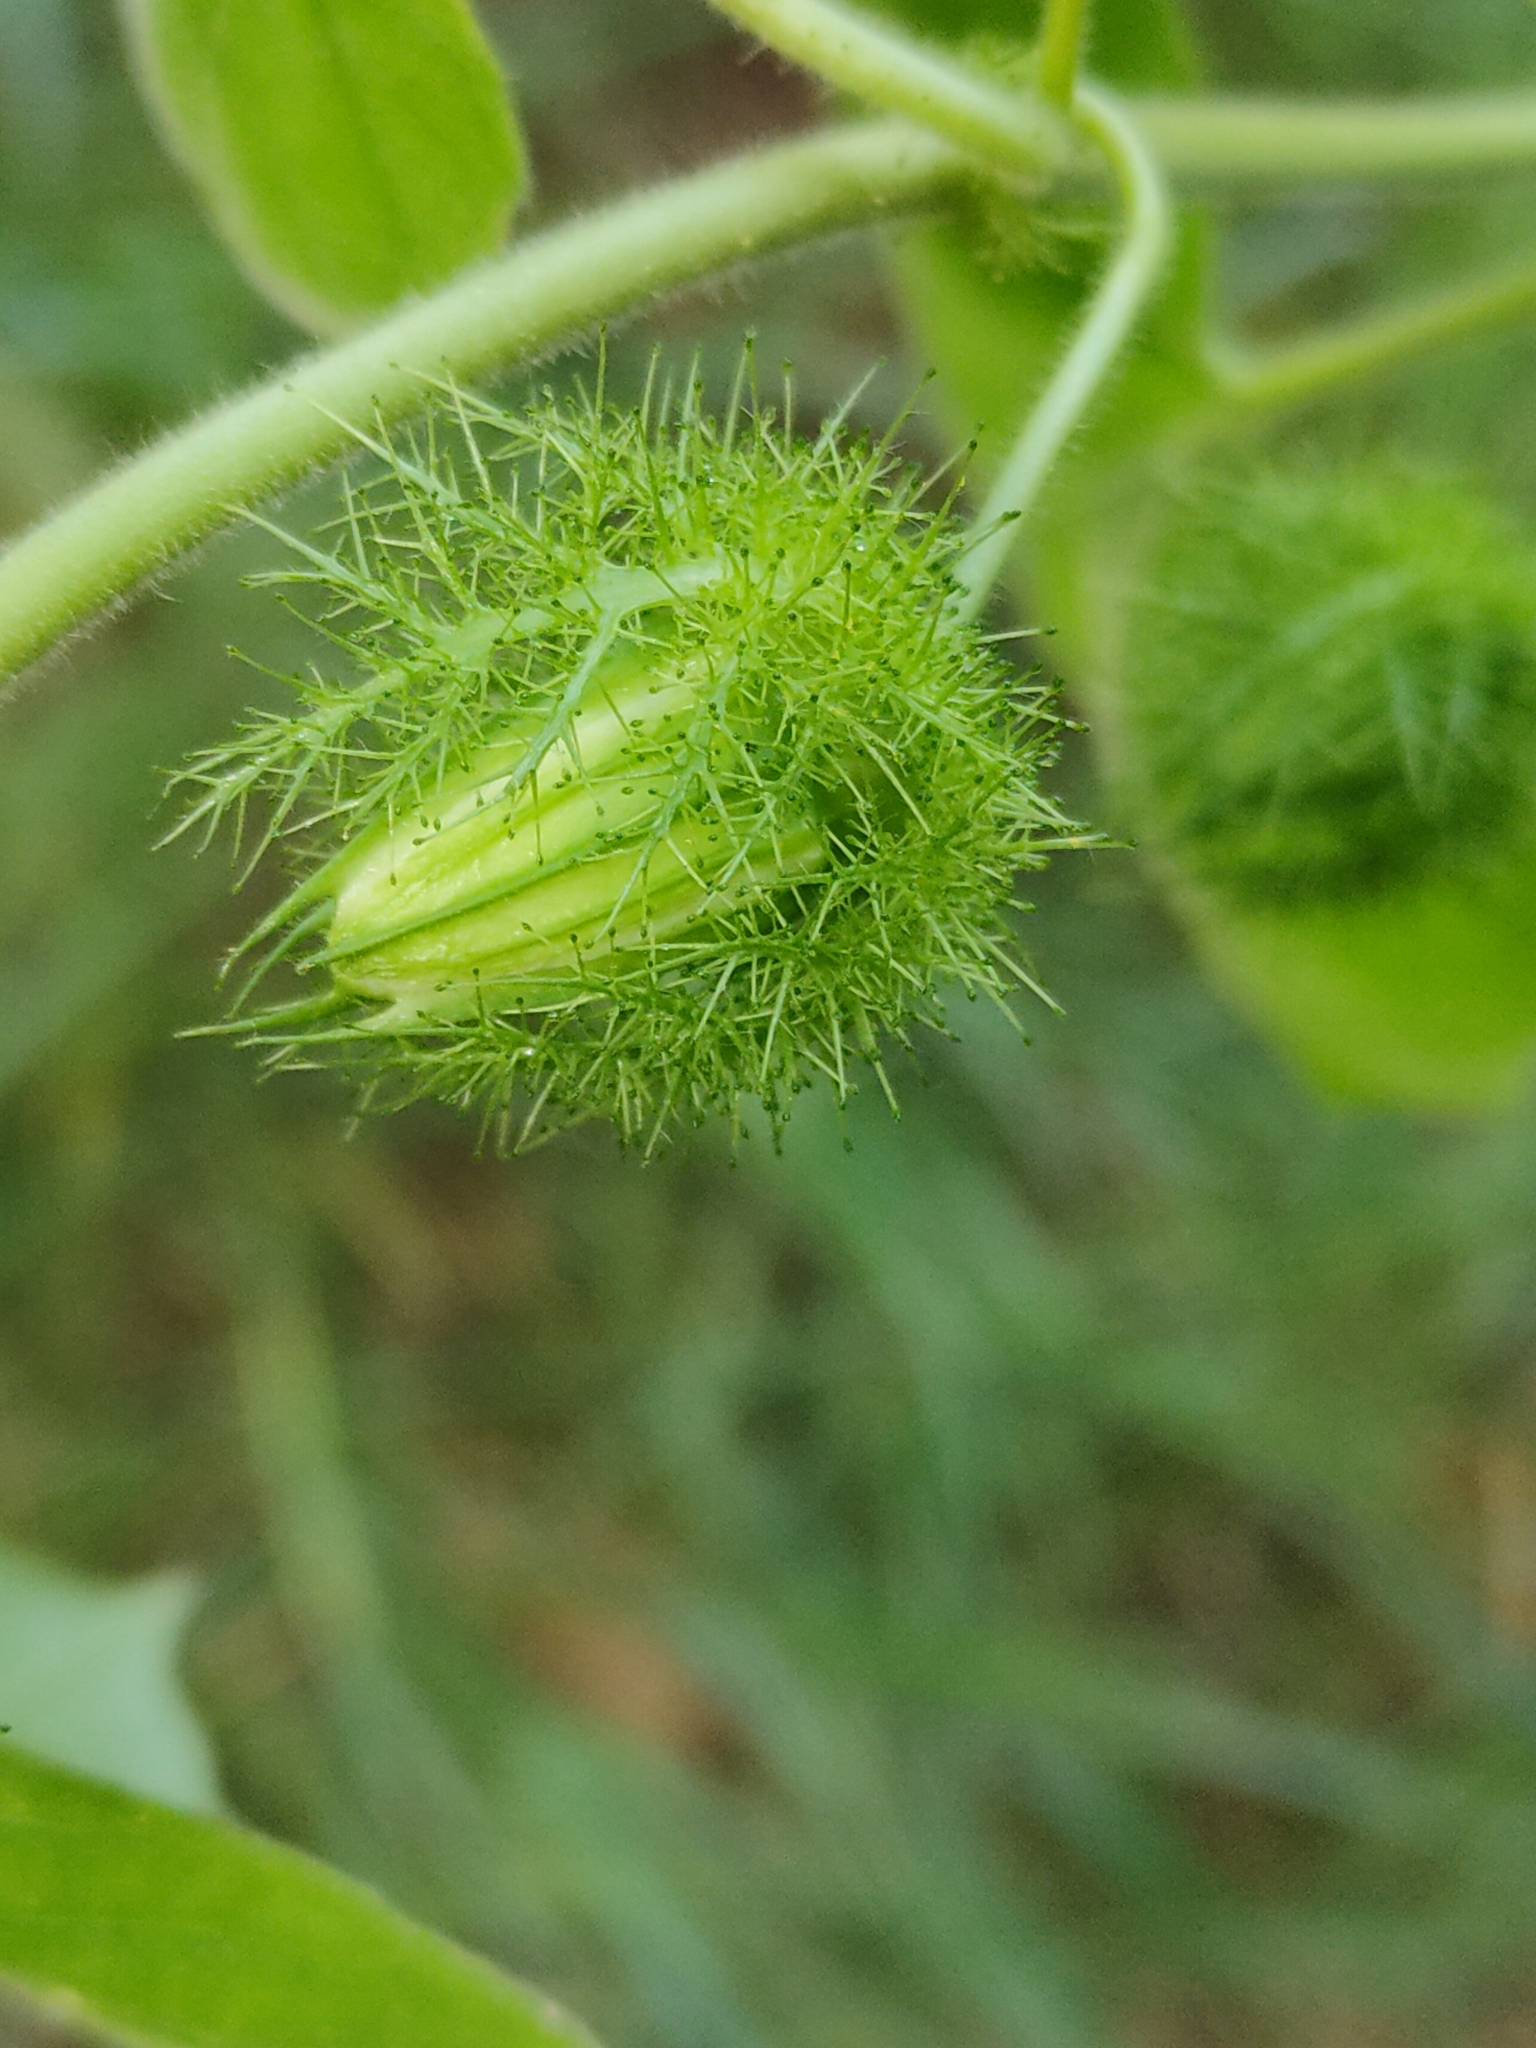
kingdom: Plantae
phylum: Tracheophyta
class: Magnoliopsida
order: Malpighiales
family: Passifloraceae
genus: Passiflora
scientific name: Passiflora vesicaria
